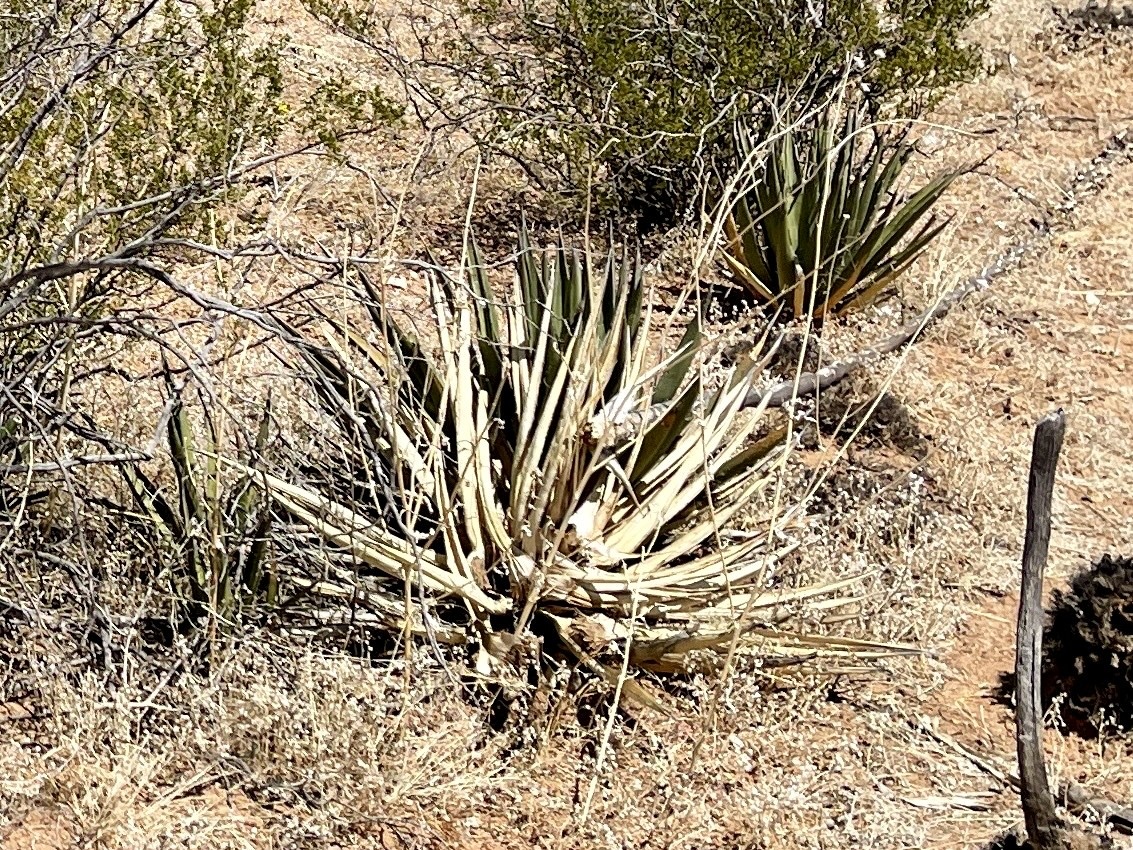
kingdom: Plantae
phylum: Tracheophyta
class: Liliopsida
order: Asparagales
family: Asparagaceae
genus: Agave
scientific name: Agave lechuguilla
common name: Lecheguilla agave
